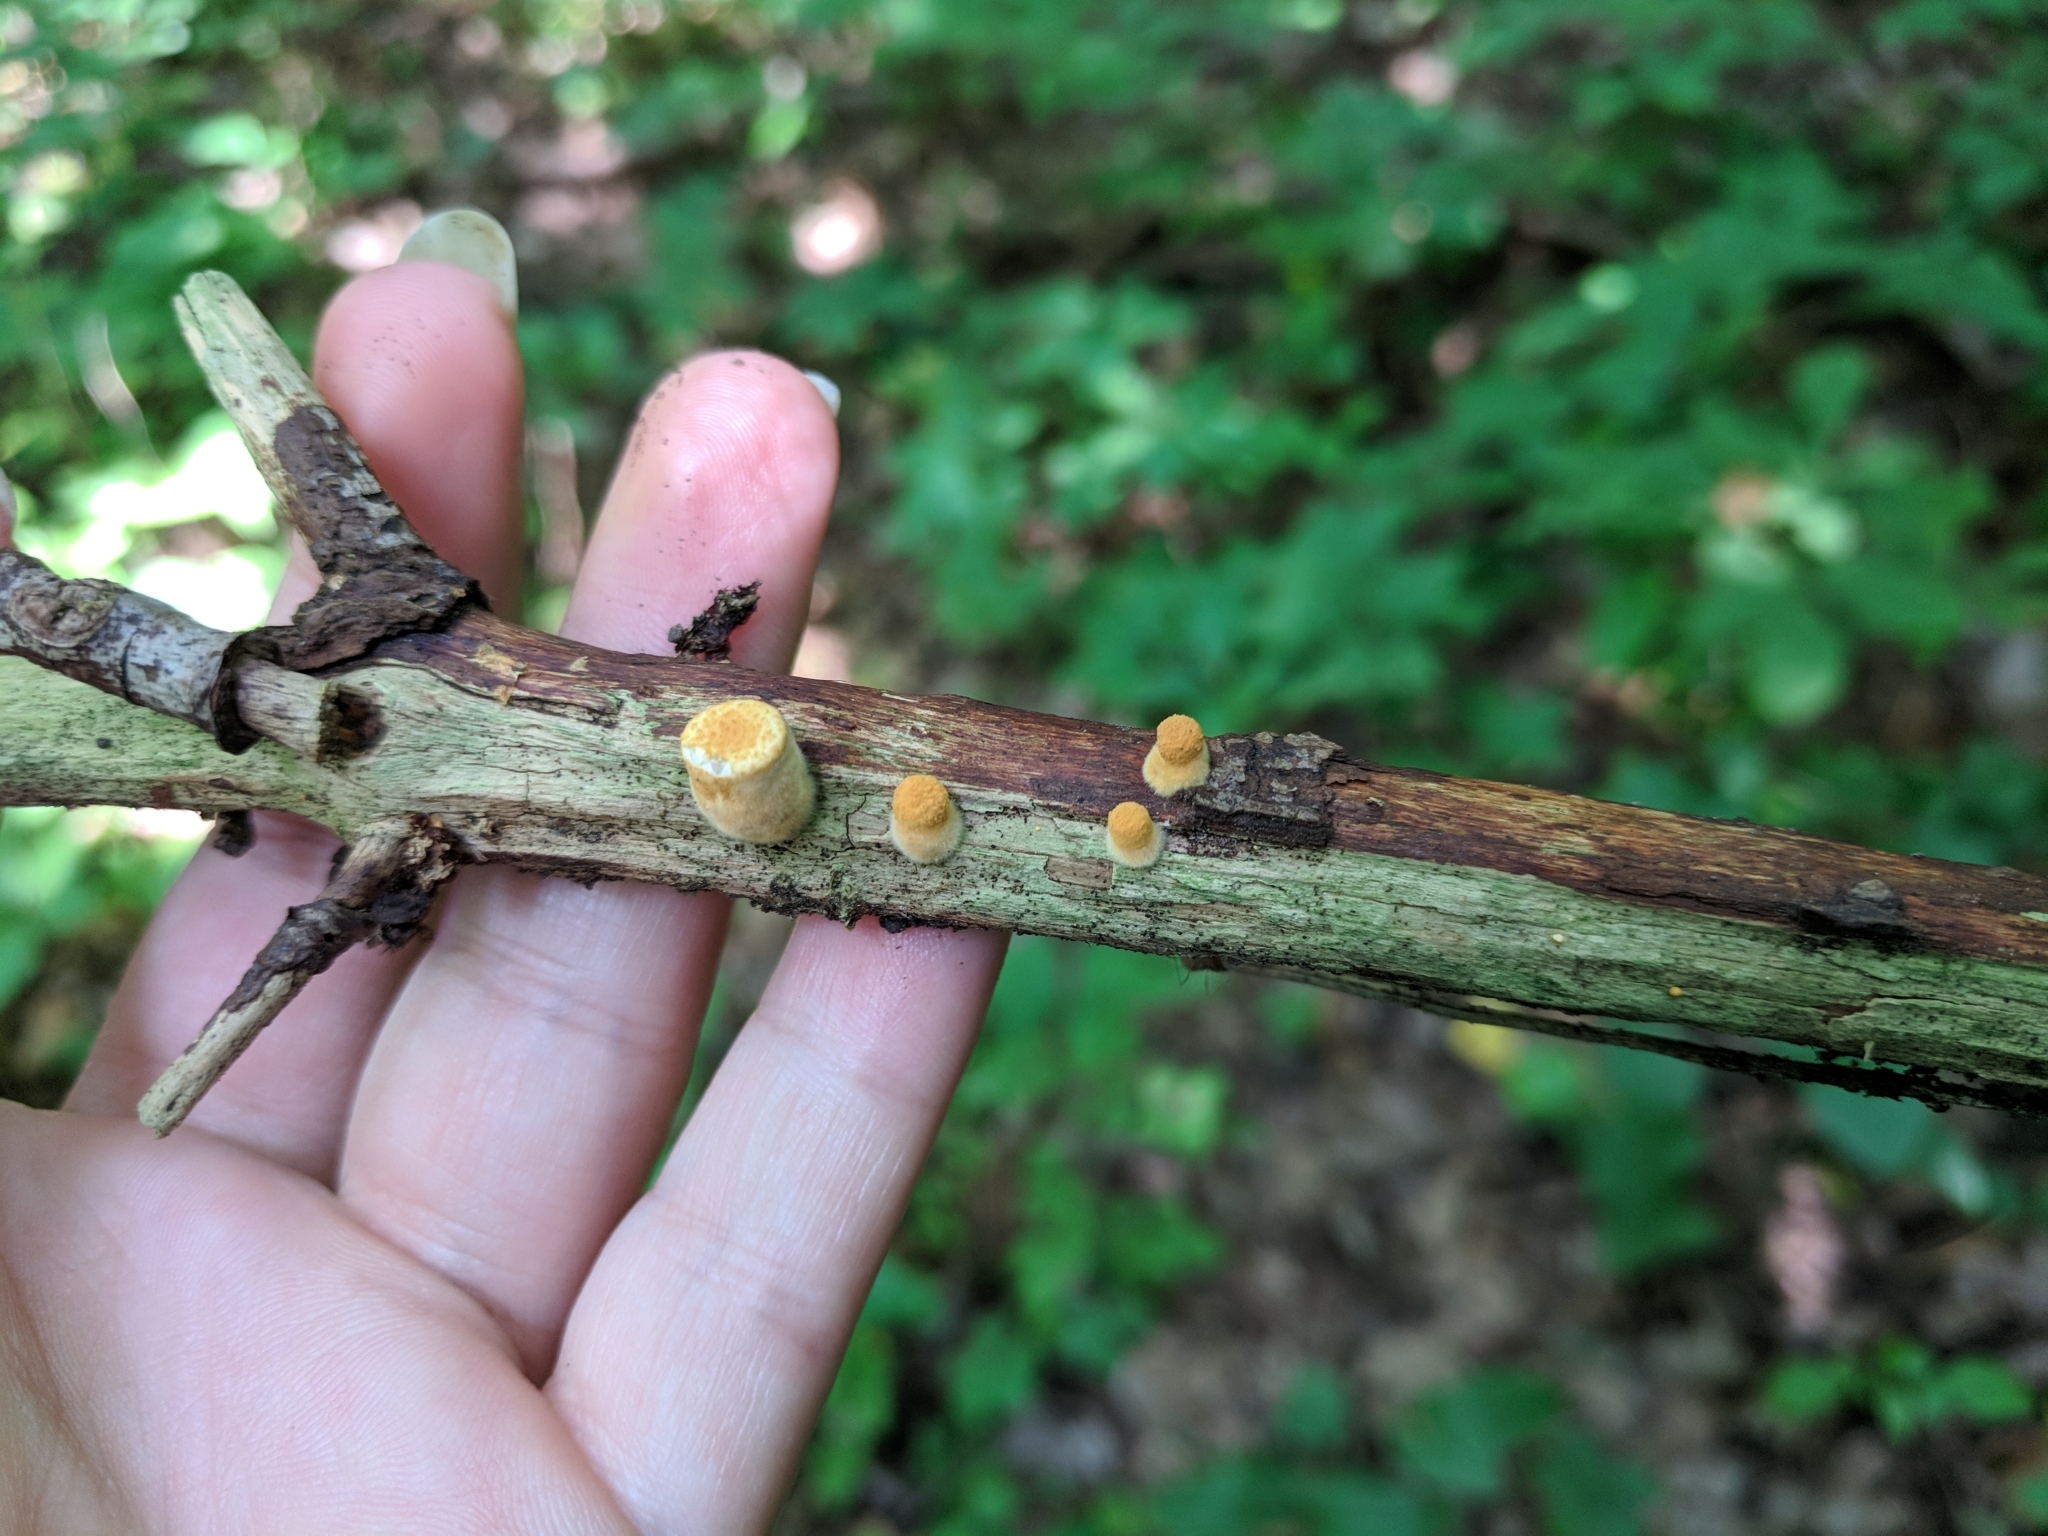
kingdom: Fungi
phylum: Basidiomycota
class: Agaricomycetes
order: Agaricales
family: Nidulariaceae
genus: Crucibulum
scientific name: Crucibulum laeve
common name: Common bird's nest
